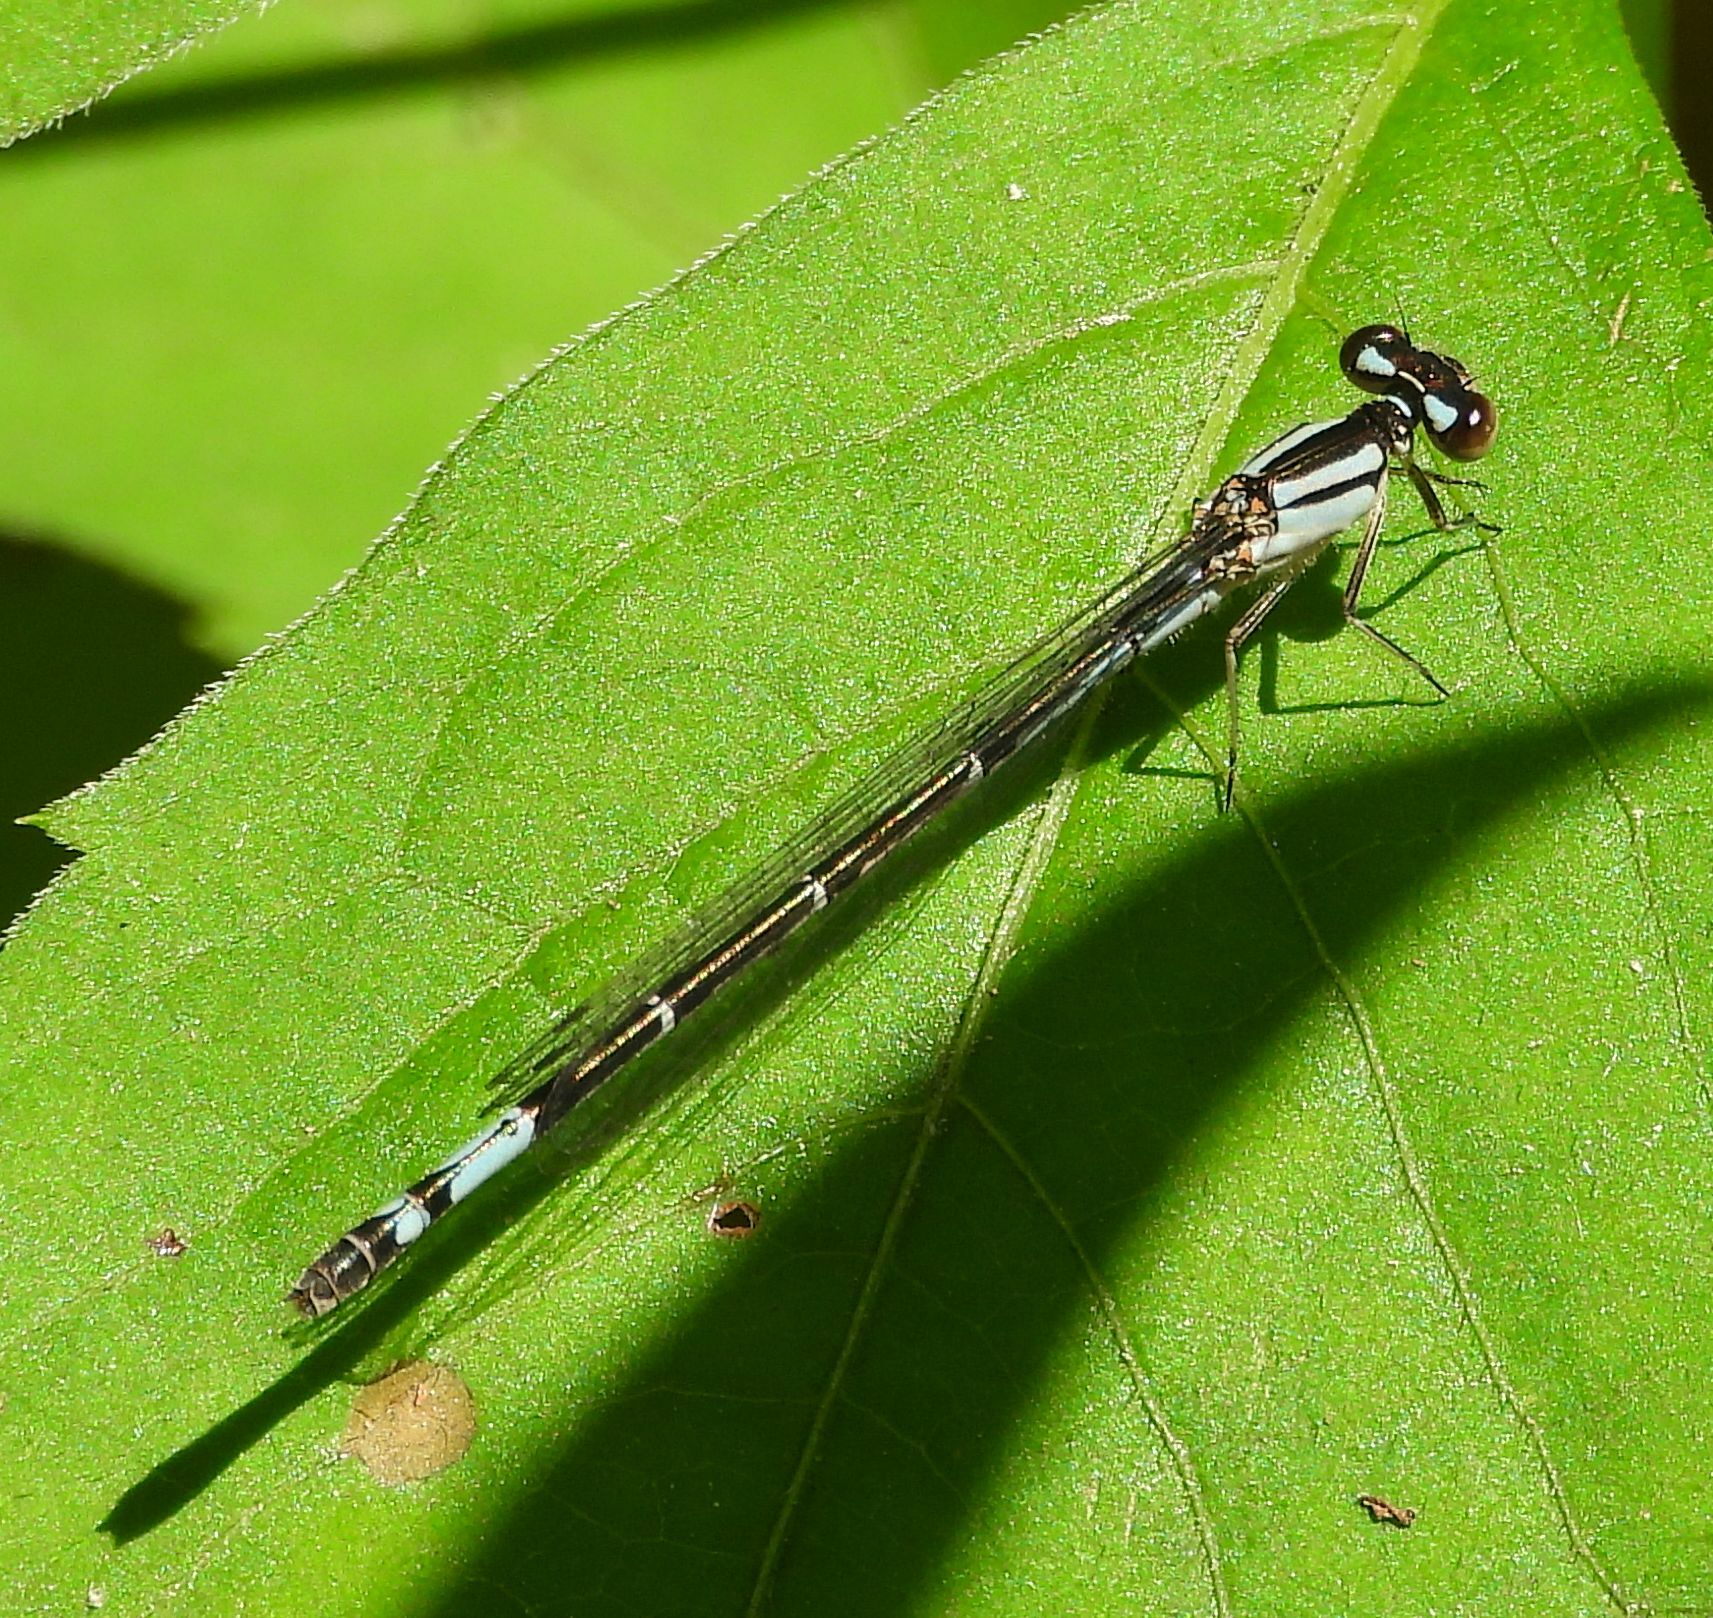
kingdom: Animalia
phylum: Arthropoda
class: Insecta
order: Odonata
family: Coenagrionidae
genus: Enallagma
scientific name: Enallagma aspersum
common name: Azure bluet
